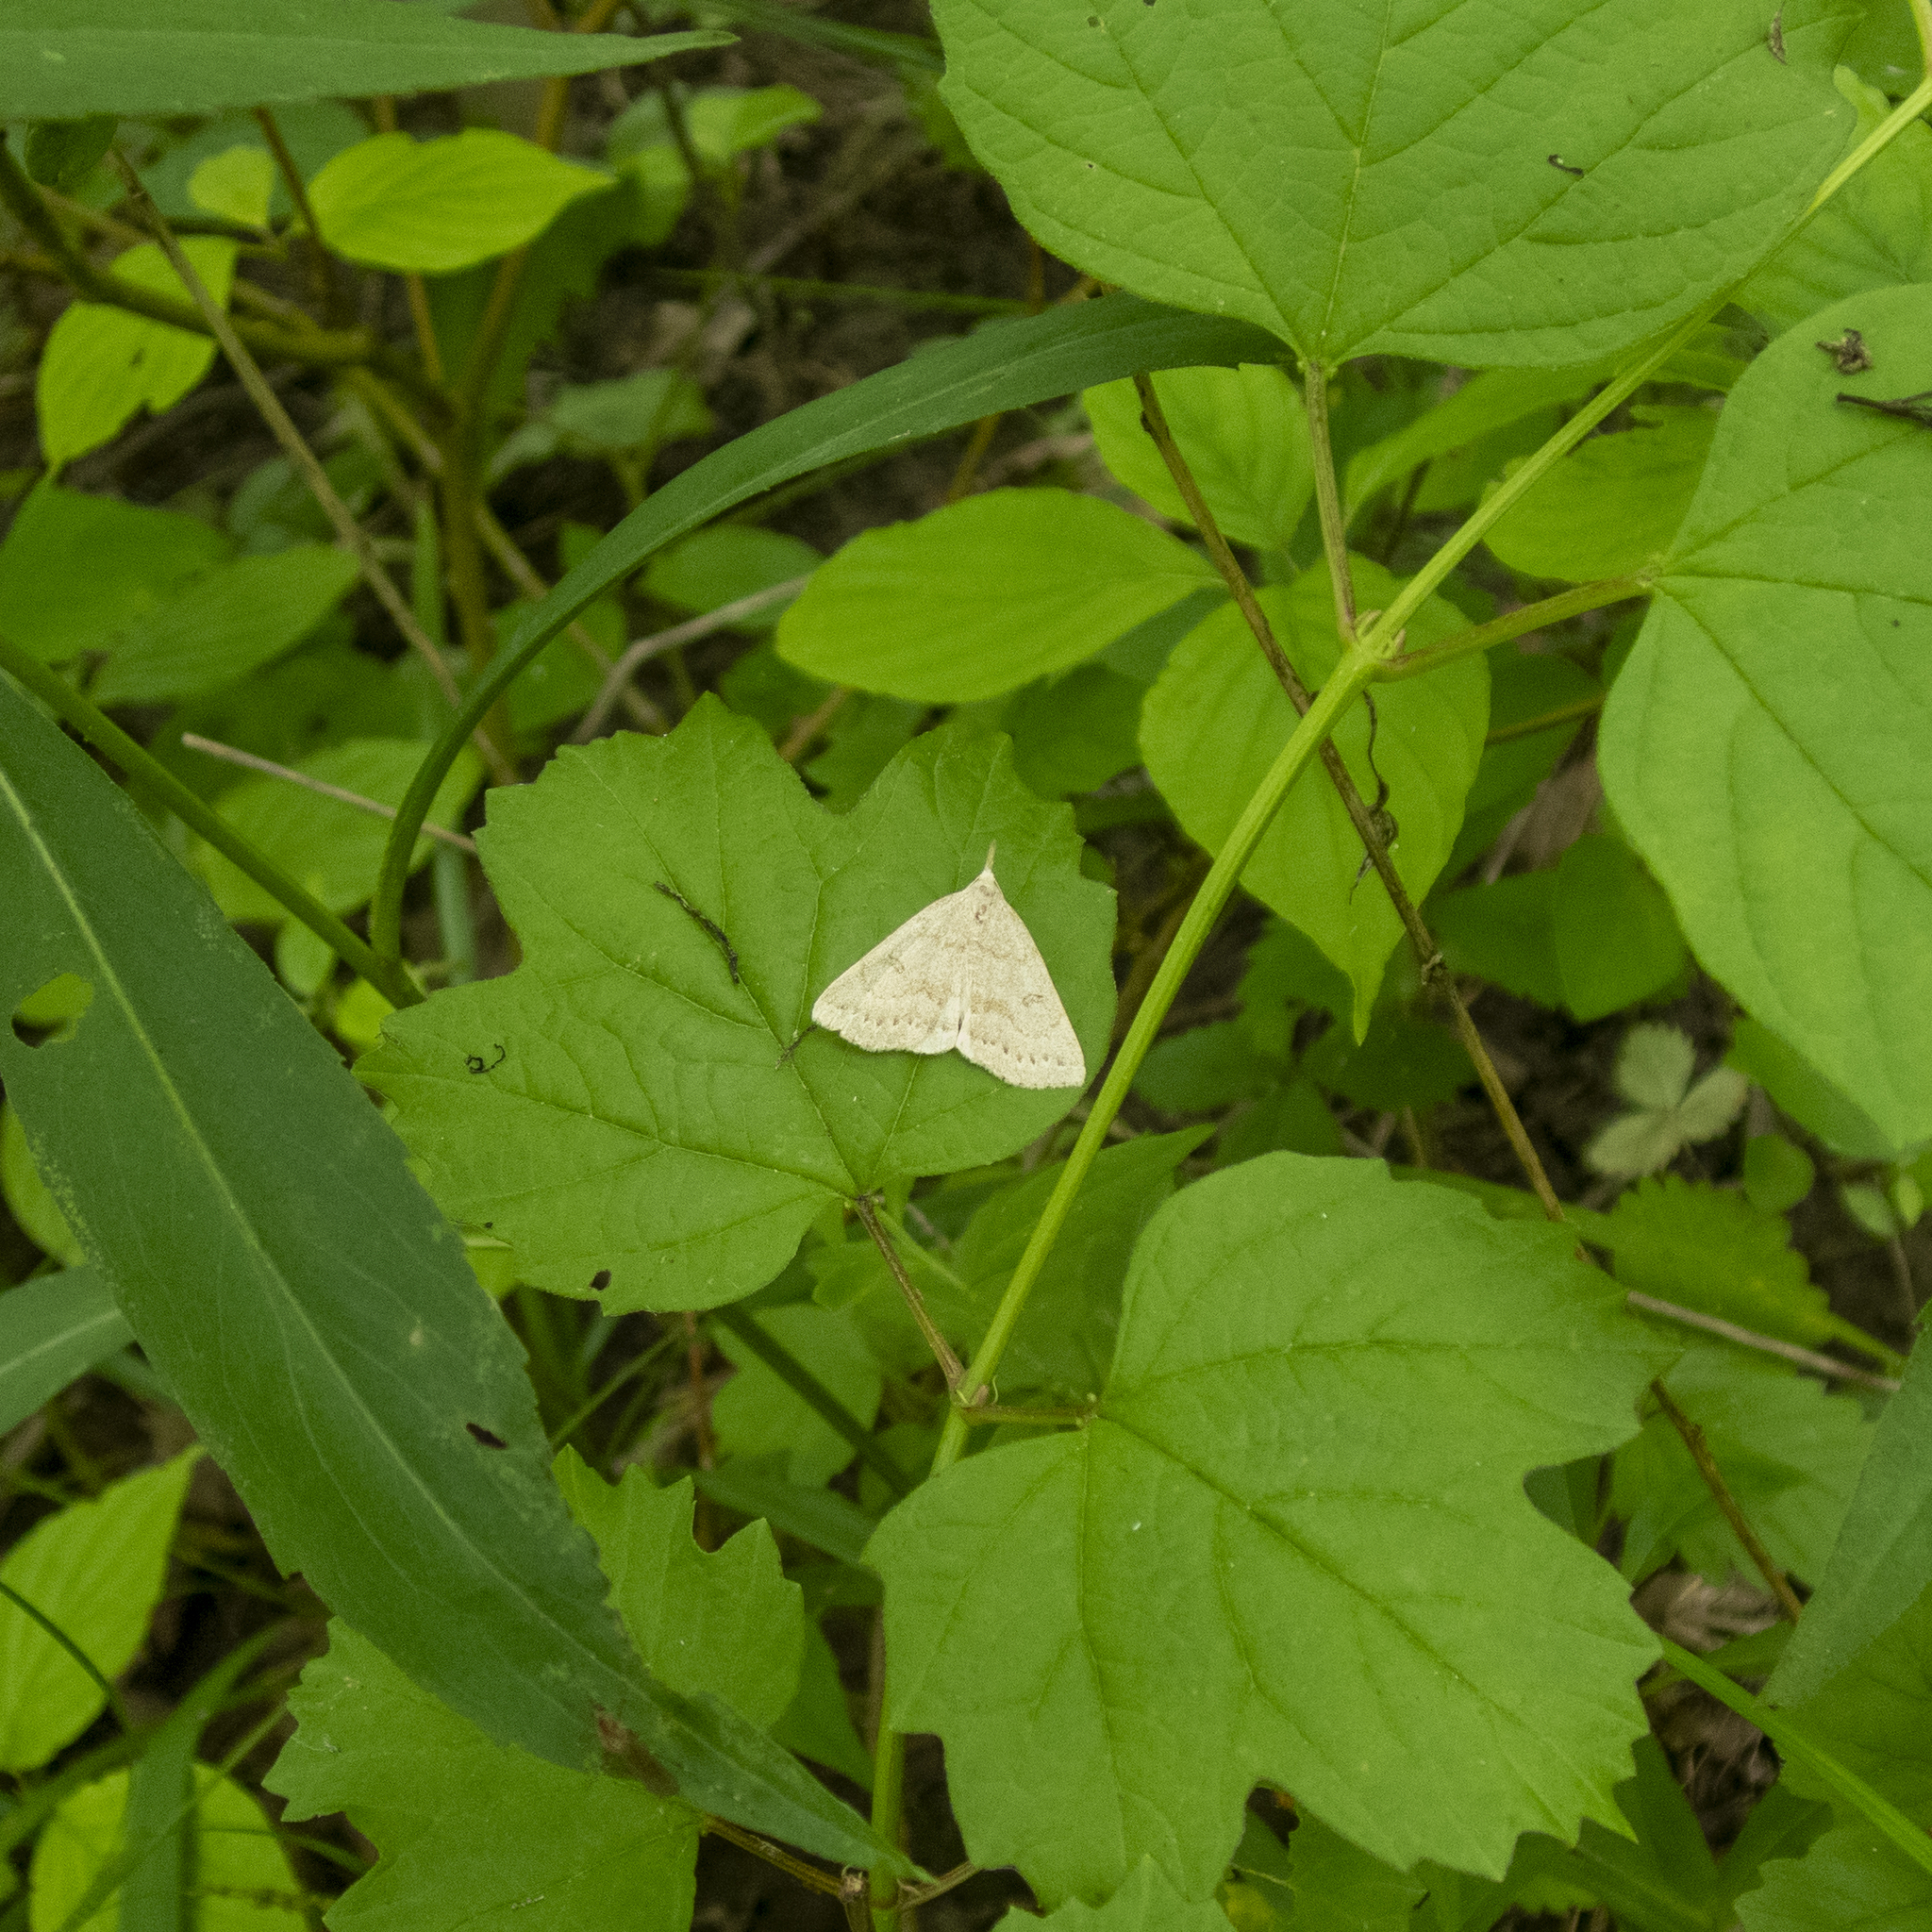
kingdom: Animalia
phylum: Arthropoda
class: Insecta
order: Lepidoptera
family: Erebidae
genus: Macrochilo
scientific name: Macrochilo morbidalis
